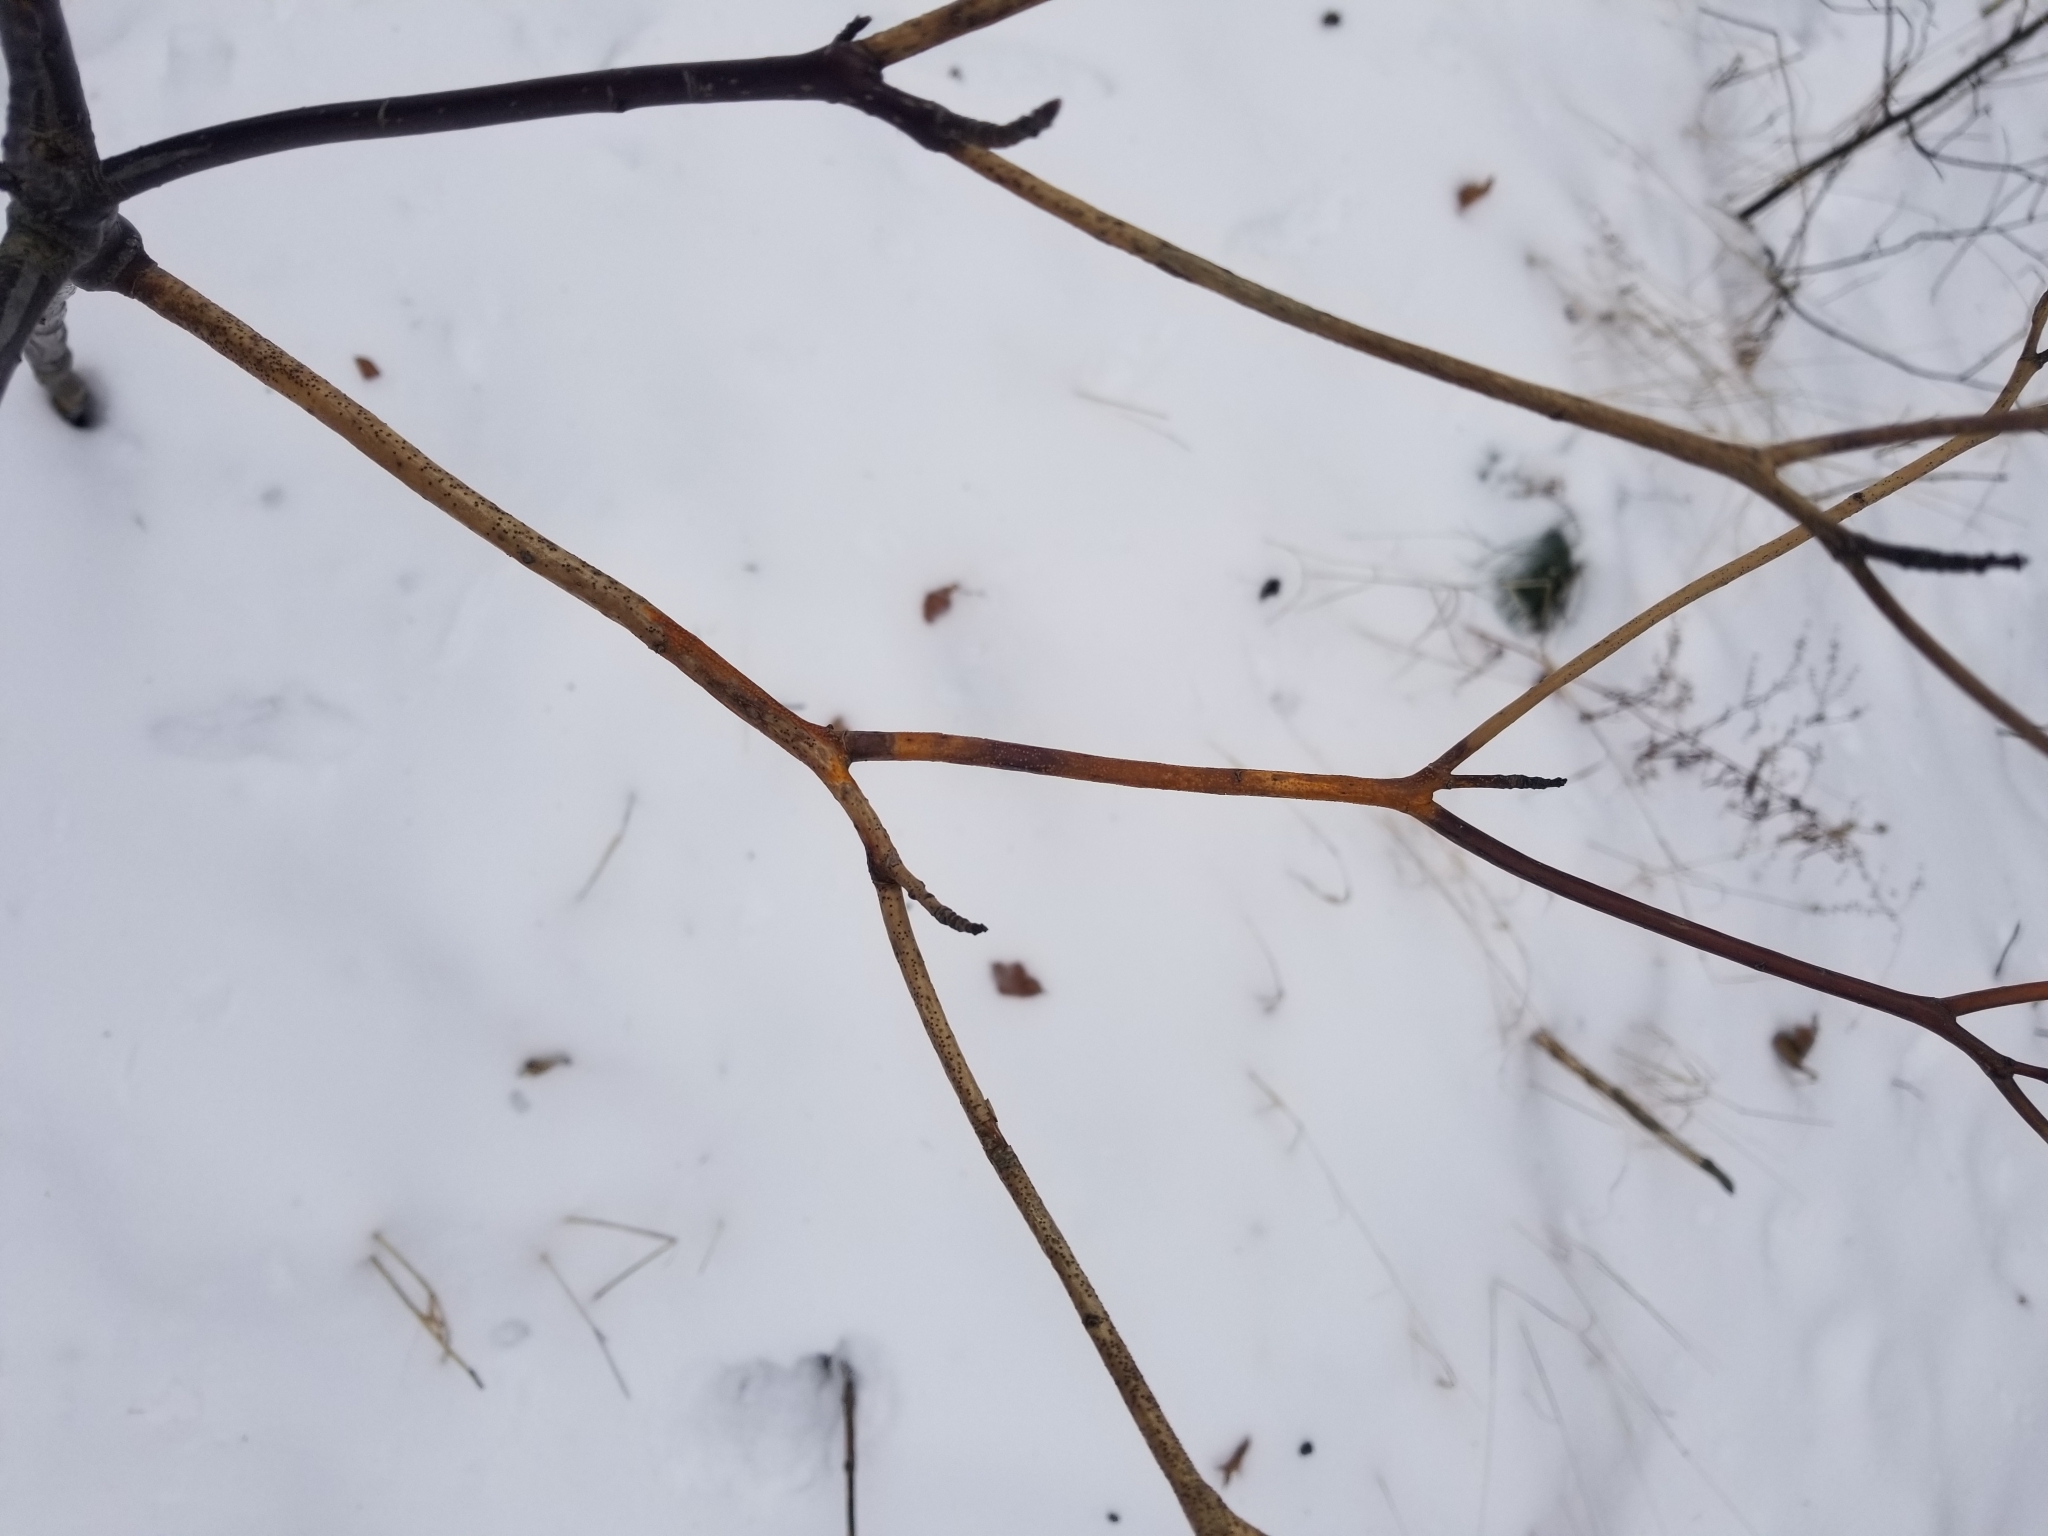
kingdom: Plantae
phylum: Tracheophyta
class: Magnoliopsida
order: Cornales
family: Cornaceae
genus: Cornus
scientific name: Cornus alternifolia
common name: Pagoda dogwood
